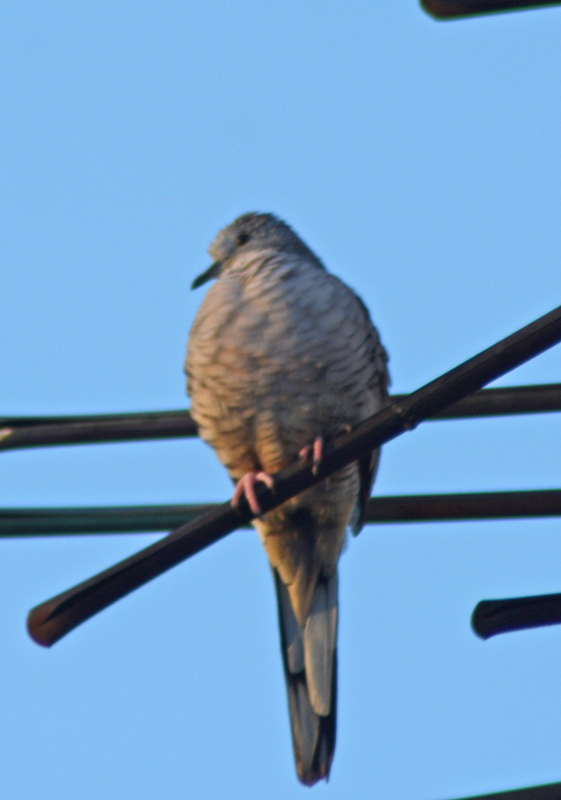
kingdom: Animalia
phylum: Chordata
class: Aves
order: Columbiformes
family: Columbidae
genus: Columbina
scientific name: Columbina inca
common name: Inca dove
